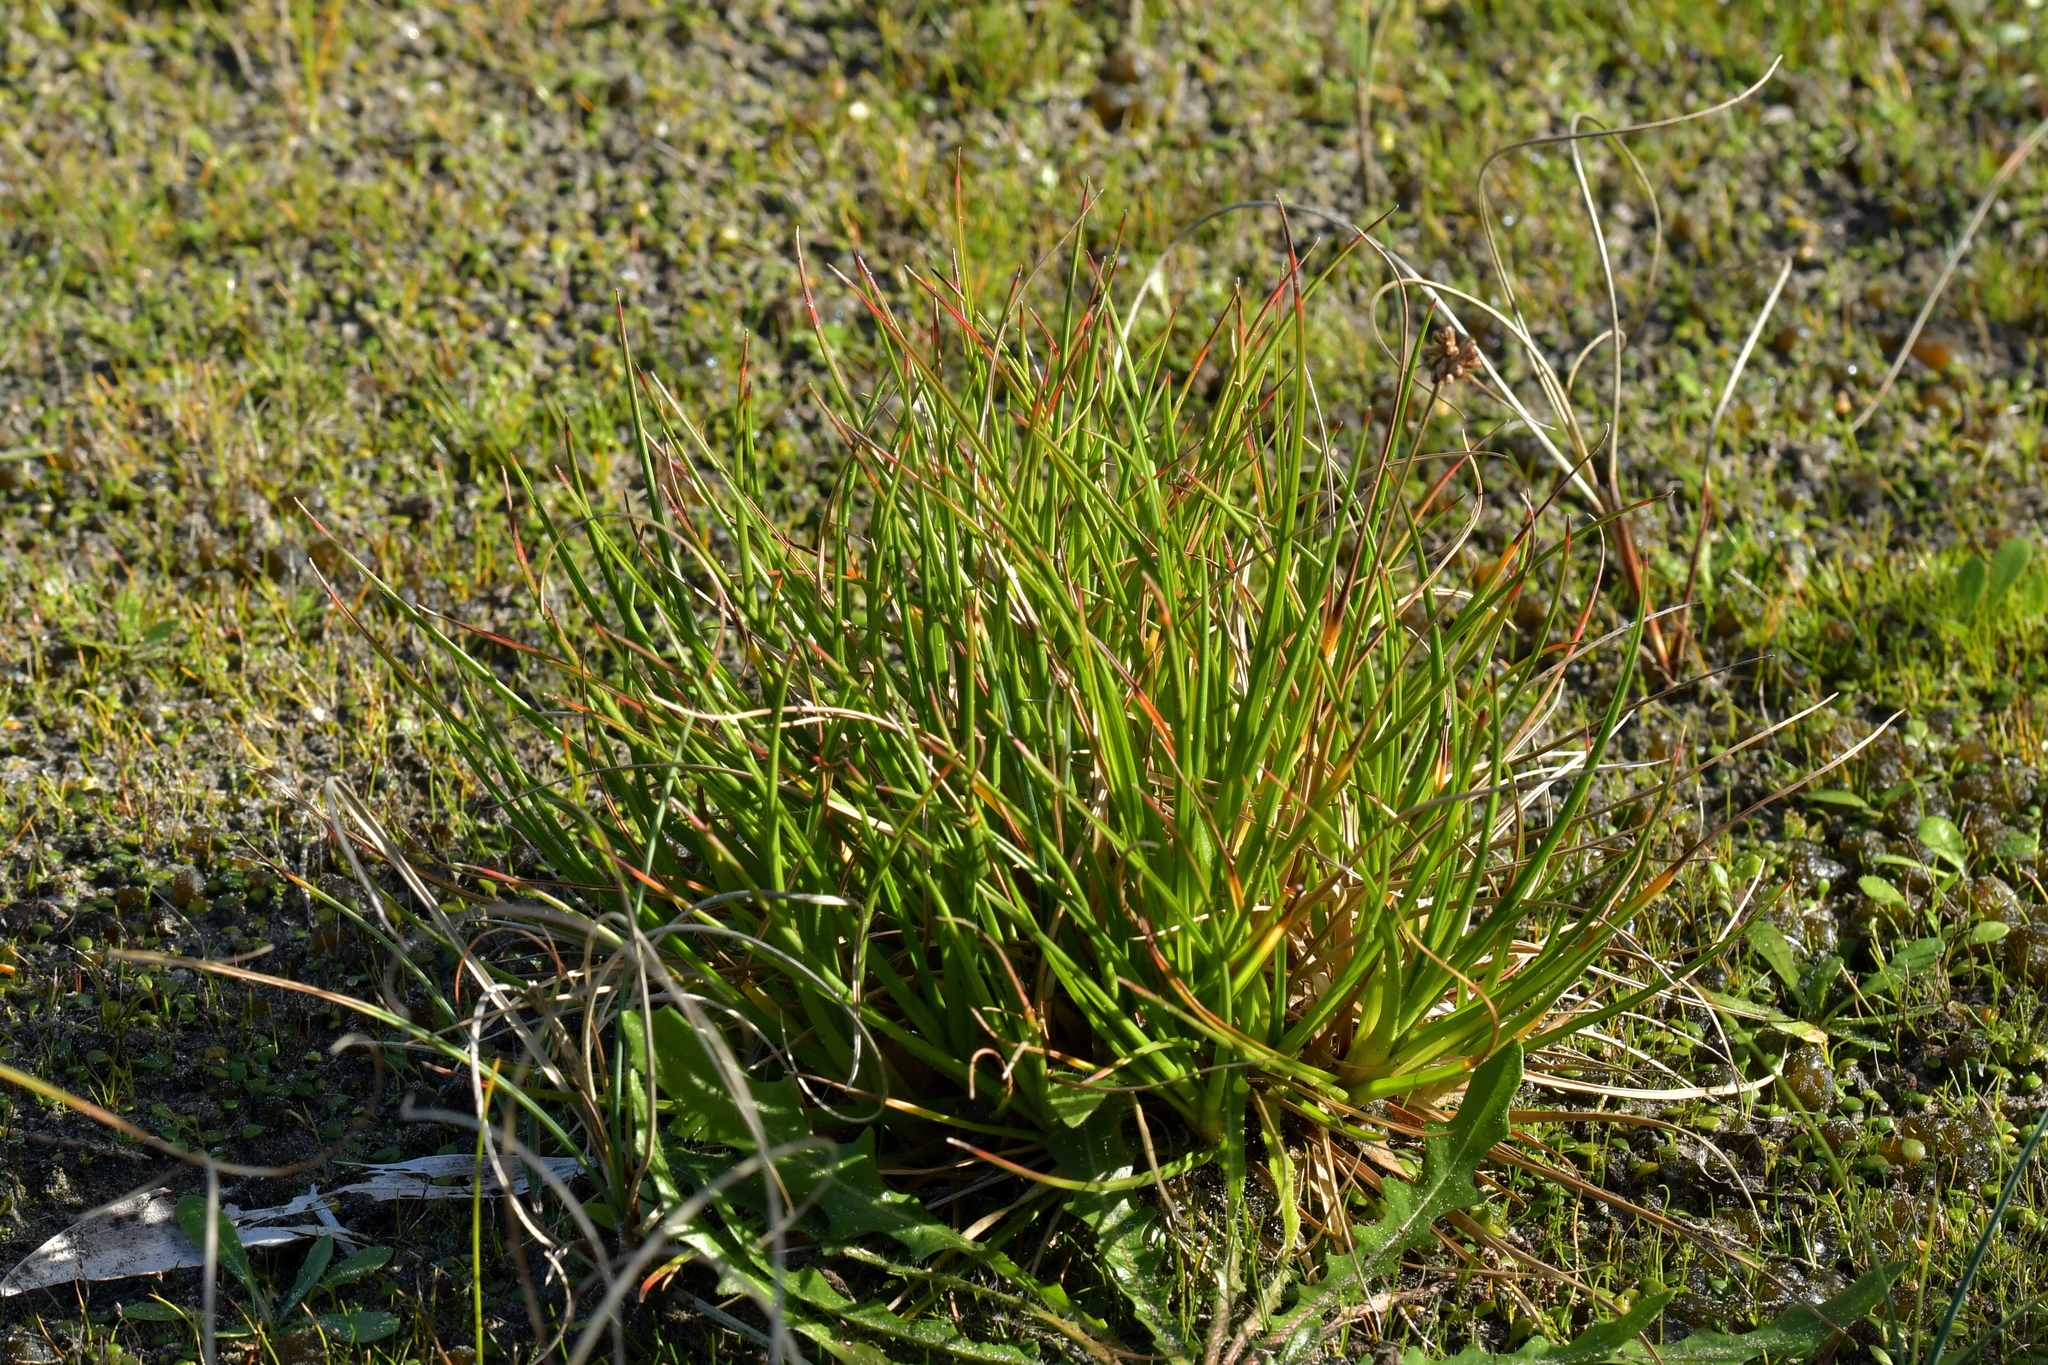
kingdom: Plantae
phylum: Tracheophyta
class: Liliopsida
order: Poales
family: Juncaceae
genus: Juncus
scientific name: Juncus caespiticius
